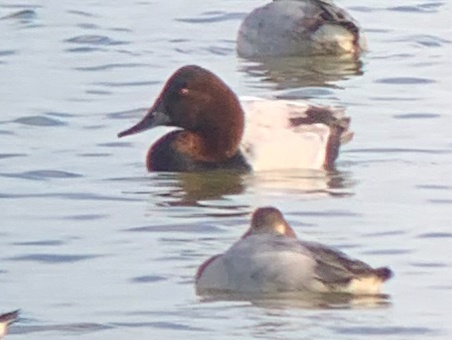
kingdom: Animalia
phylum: Chordata
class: Aves
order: Anseriformes
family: Anatidae
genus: Aythya
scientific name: Aythya valisineria
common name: Canvasback
